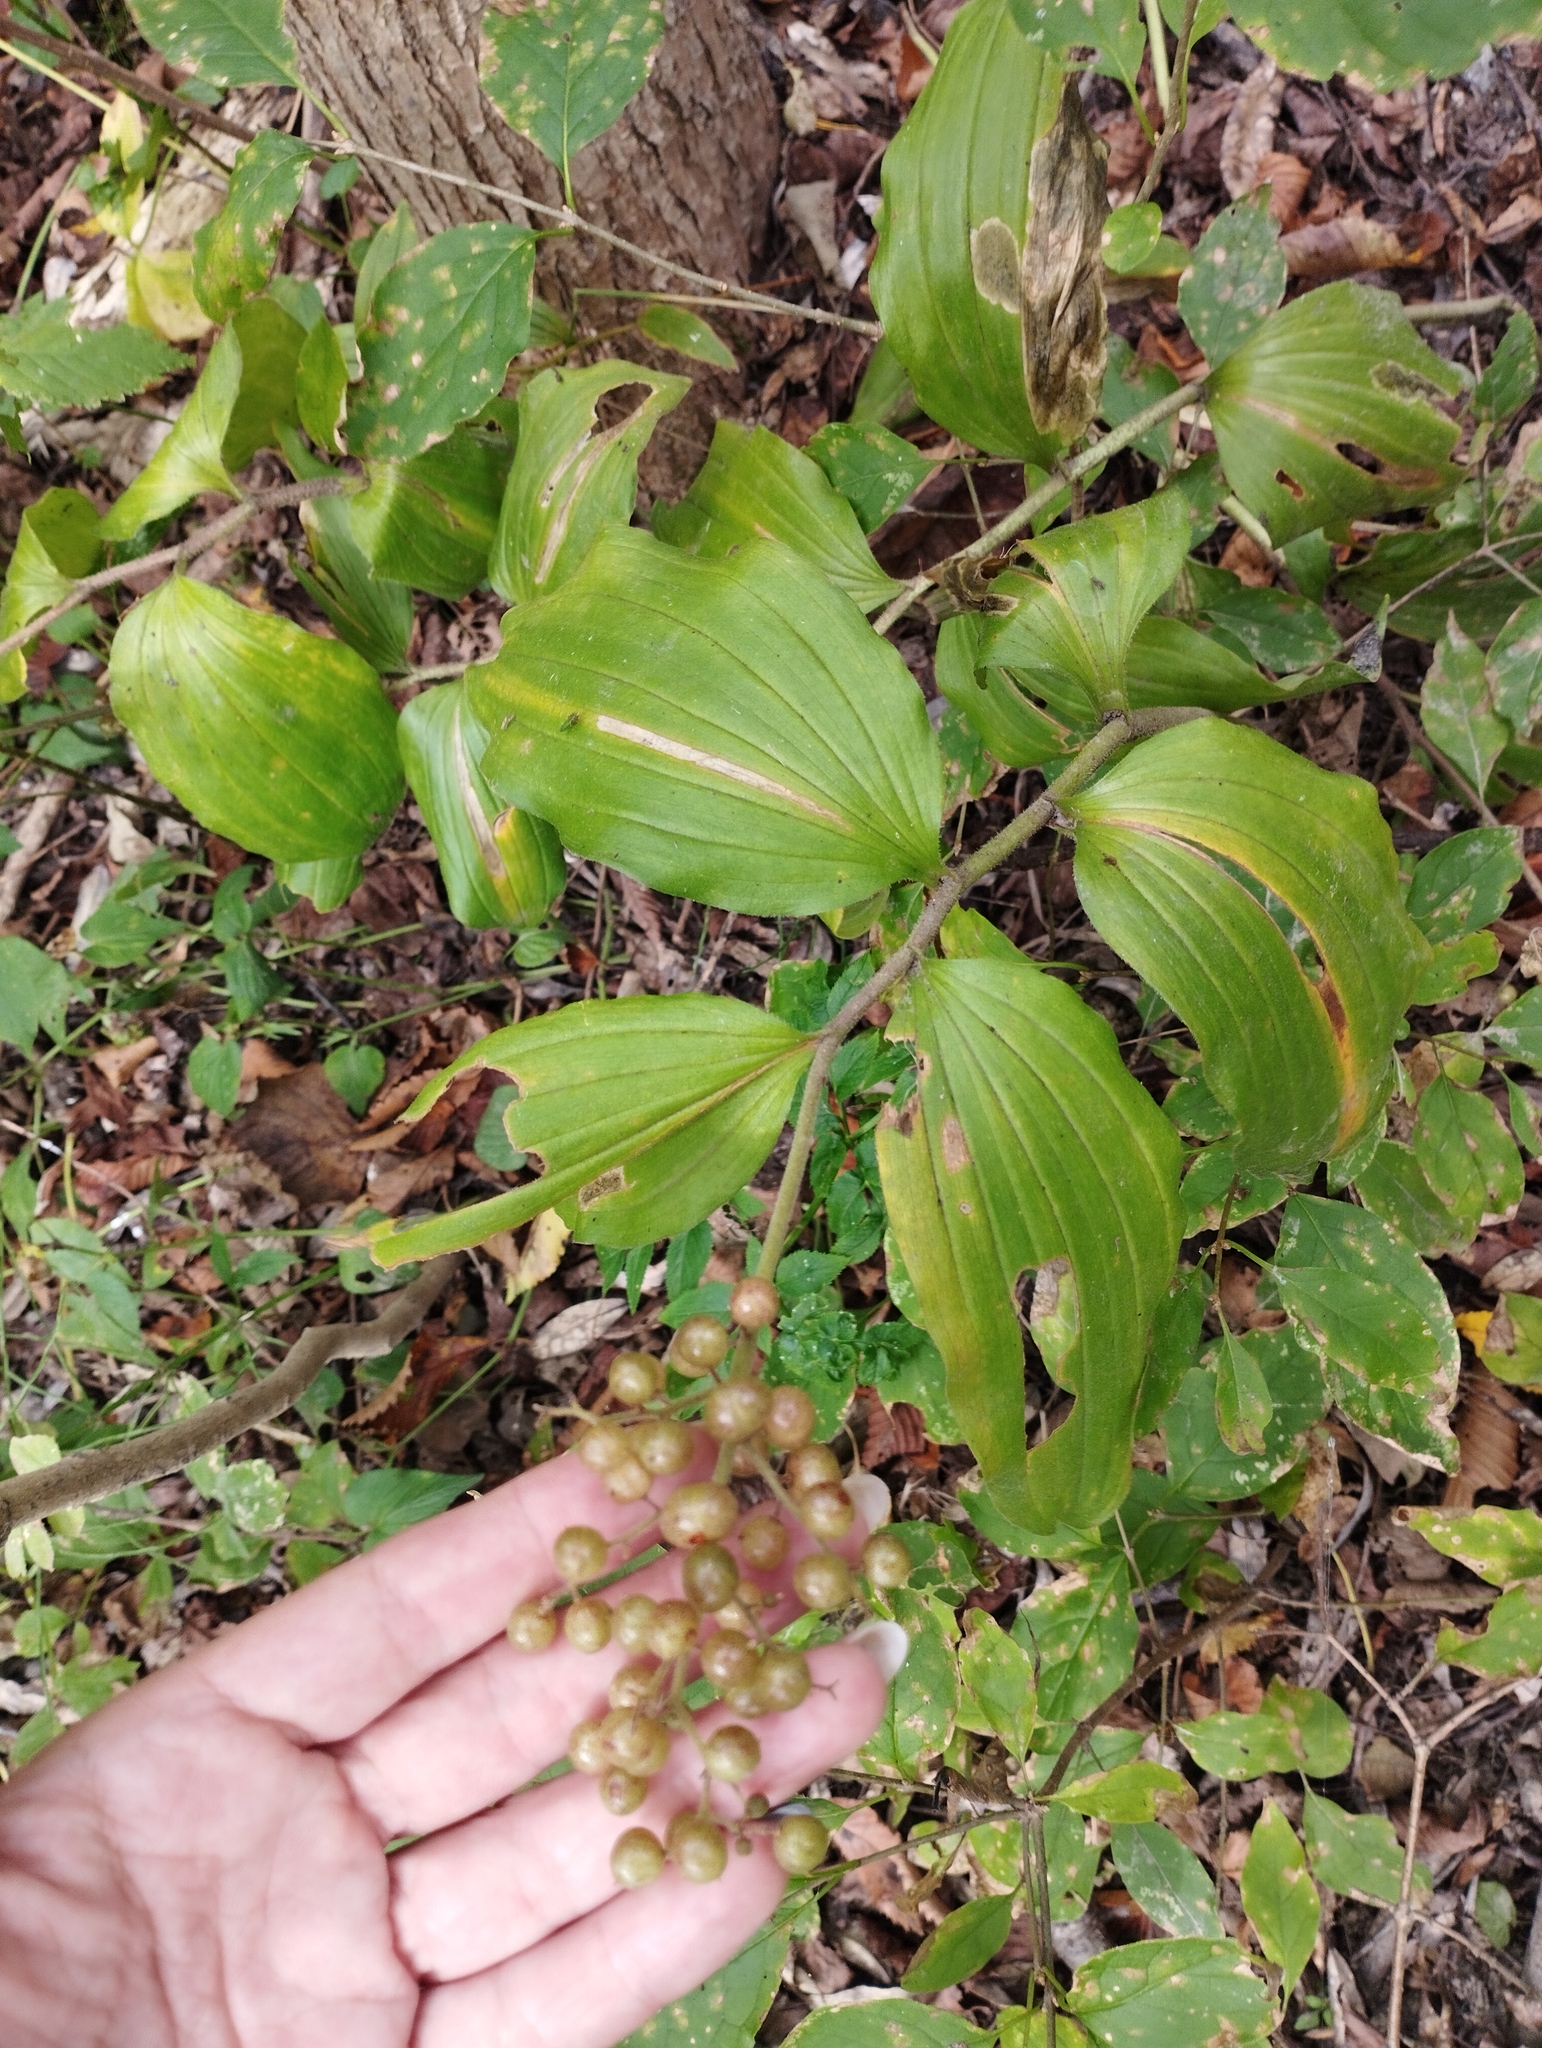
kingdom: Plantae
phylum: Tracheophyta
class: Liliopsida
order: Asparagales
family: Asparagaceae
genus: Maianthemum
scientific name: Maianthemum japonicum
